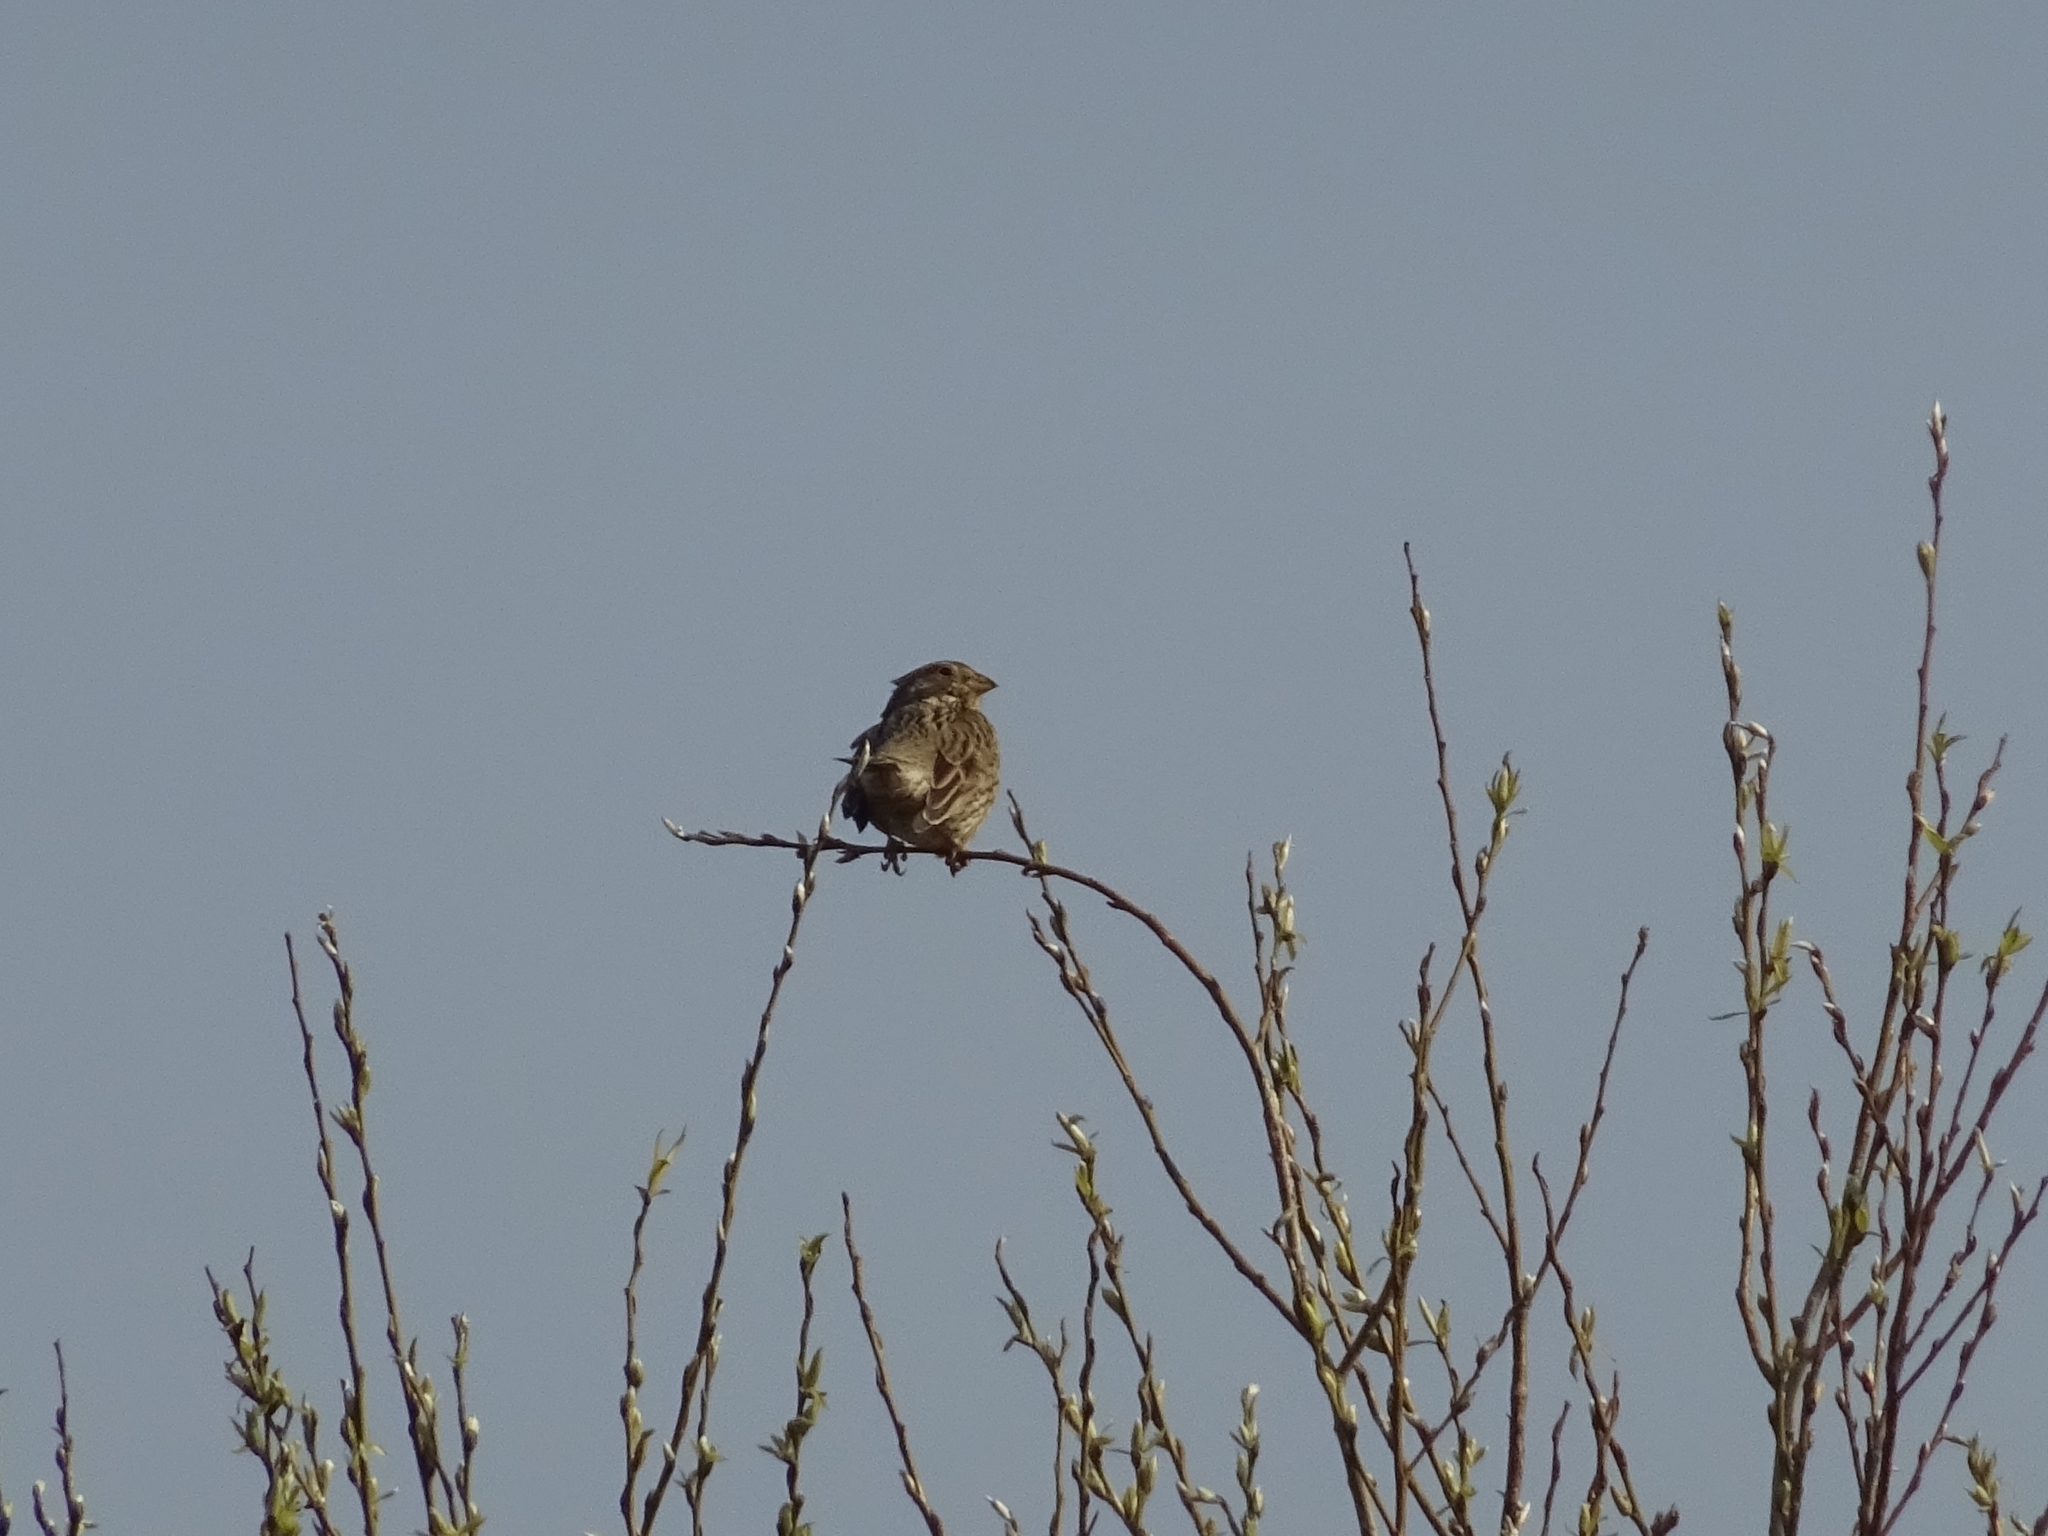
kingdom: Animalia
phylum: Chordata
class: Aves
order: Passeriformes
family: Emberizidae
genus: Emberiza
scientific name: Emberiza calandra
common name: Corn bunting
